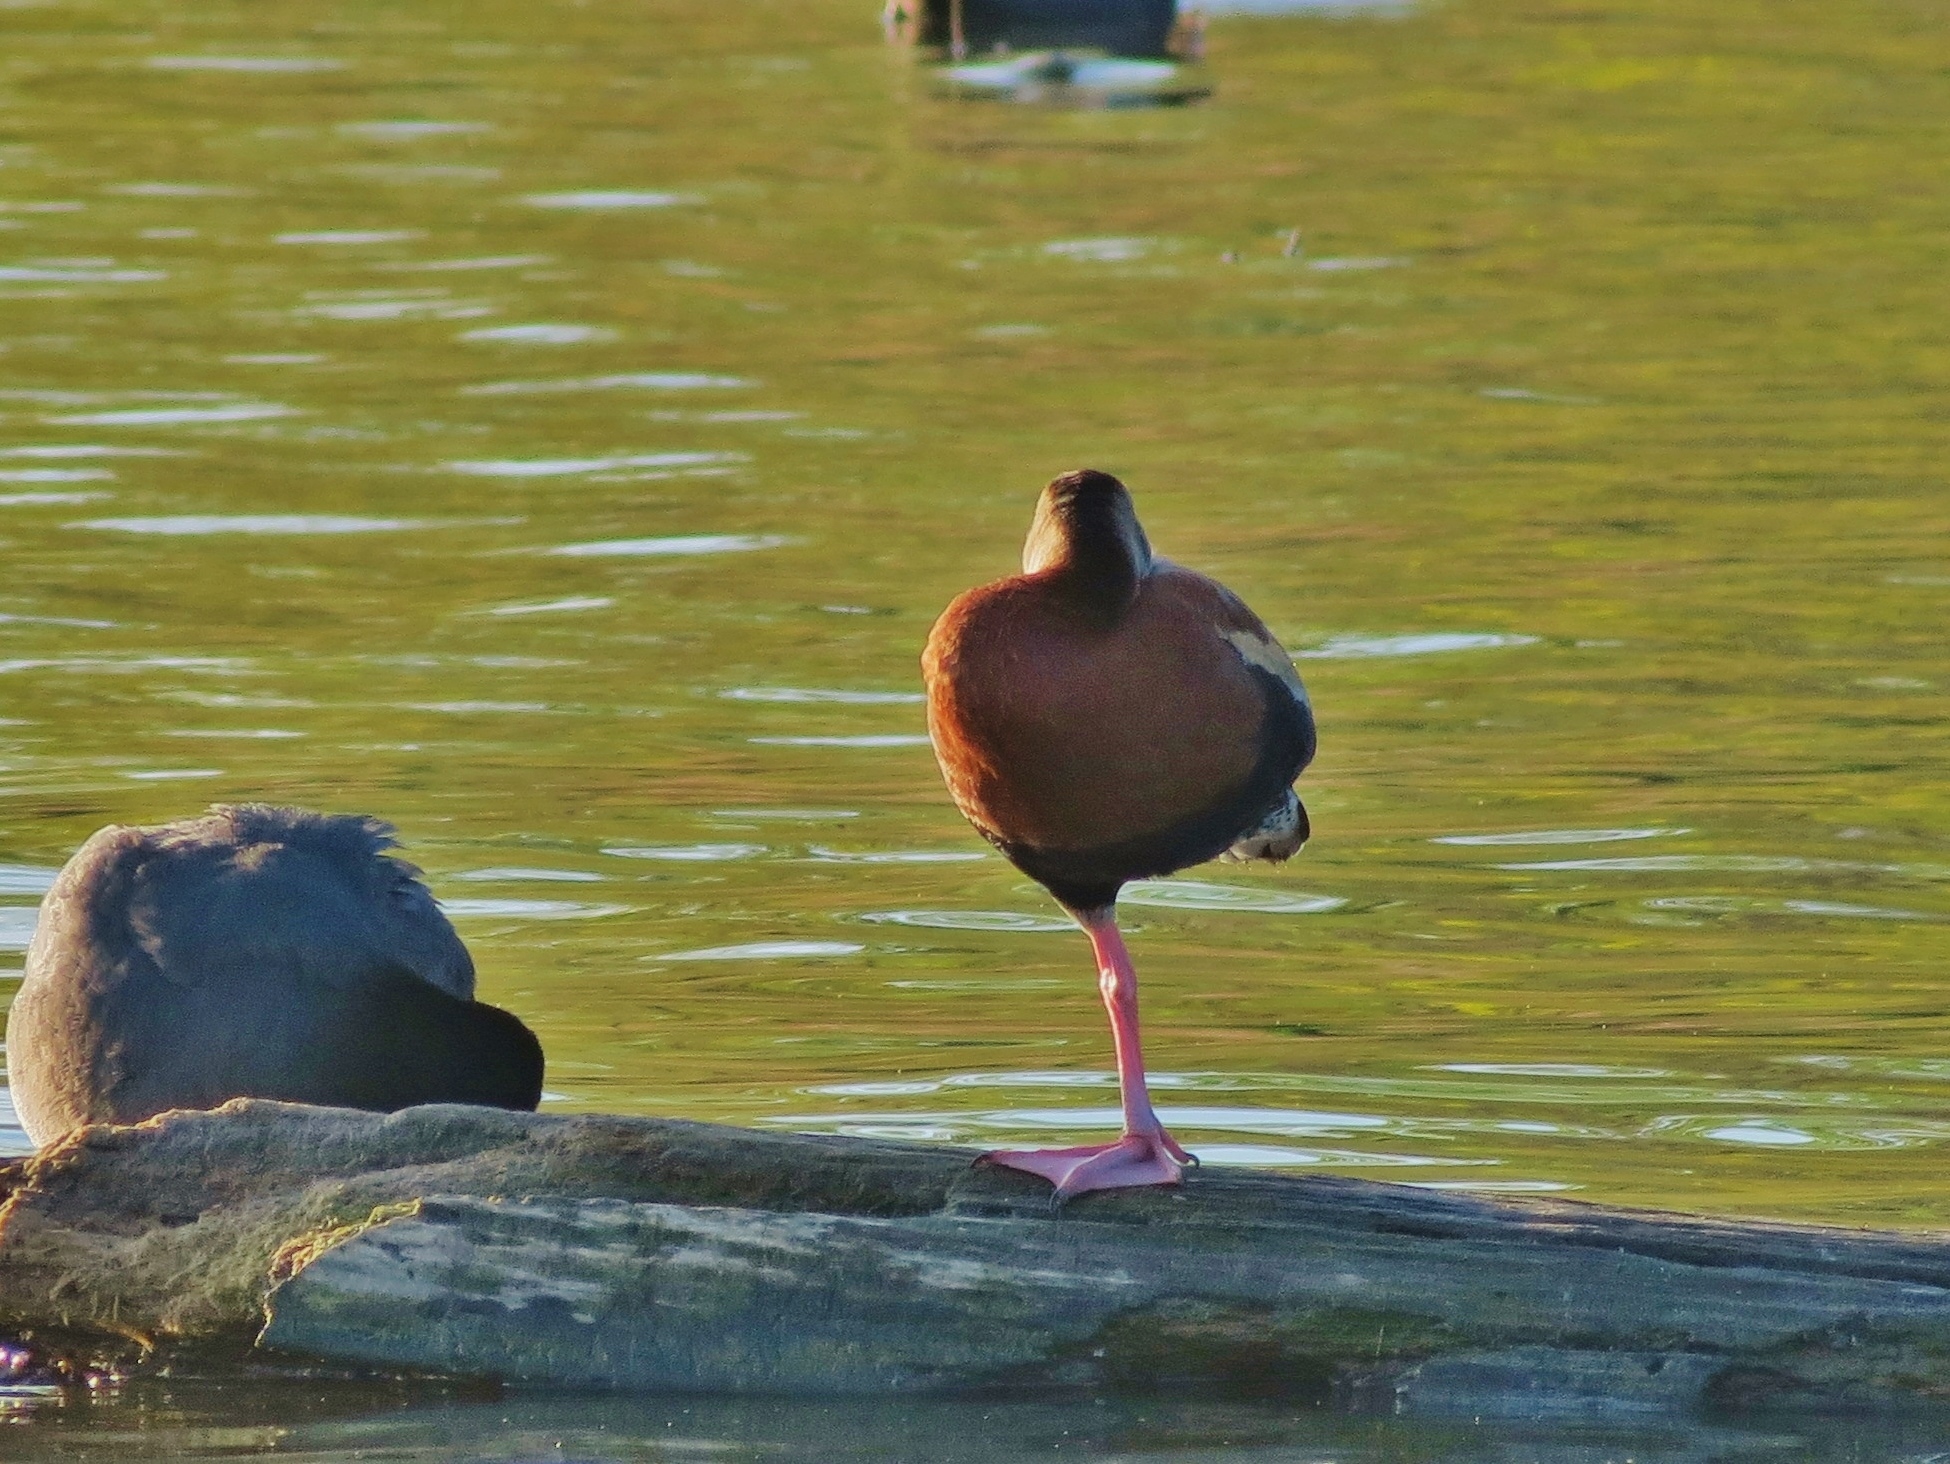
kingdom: Animalia
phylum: Chordata
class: Aves
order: Anseriformes
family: Anatidae
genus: Dendrocygna
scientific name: Dendrocygna autumnalis
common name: Black-bellied whistling duck
